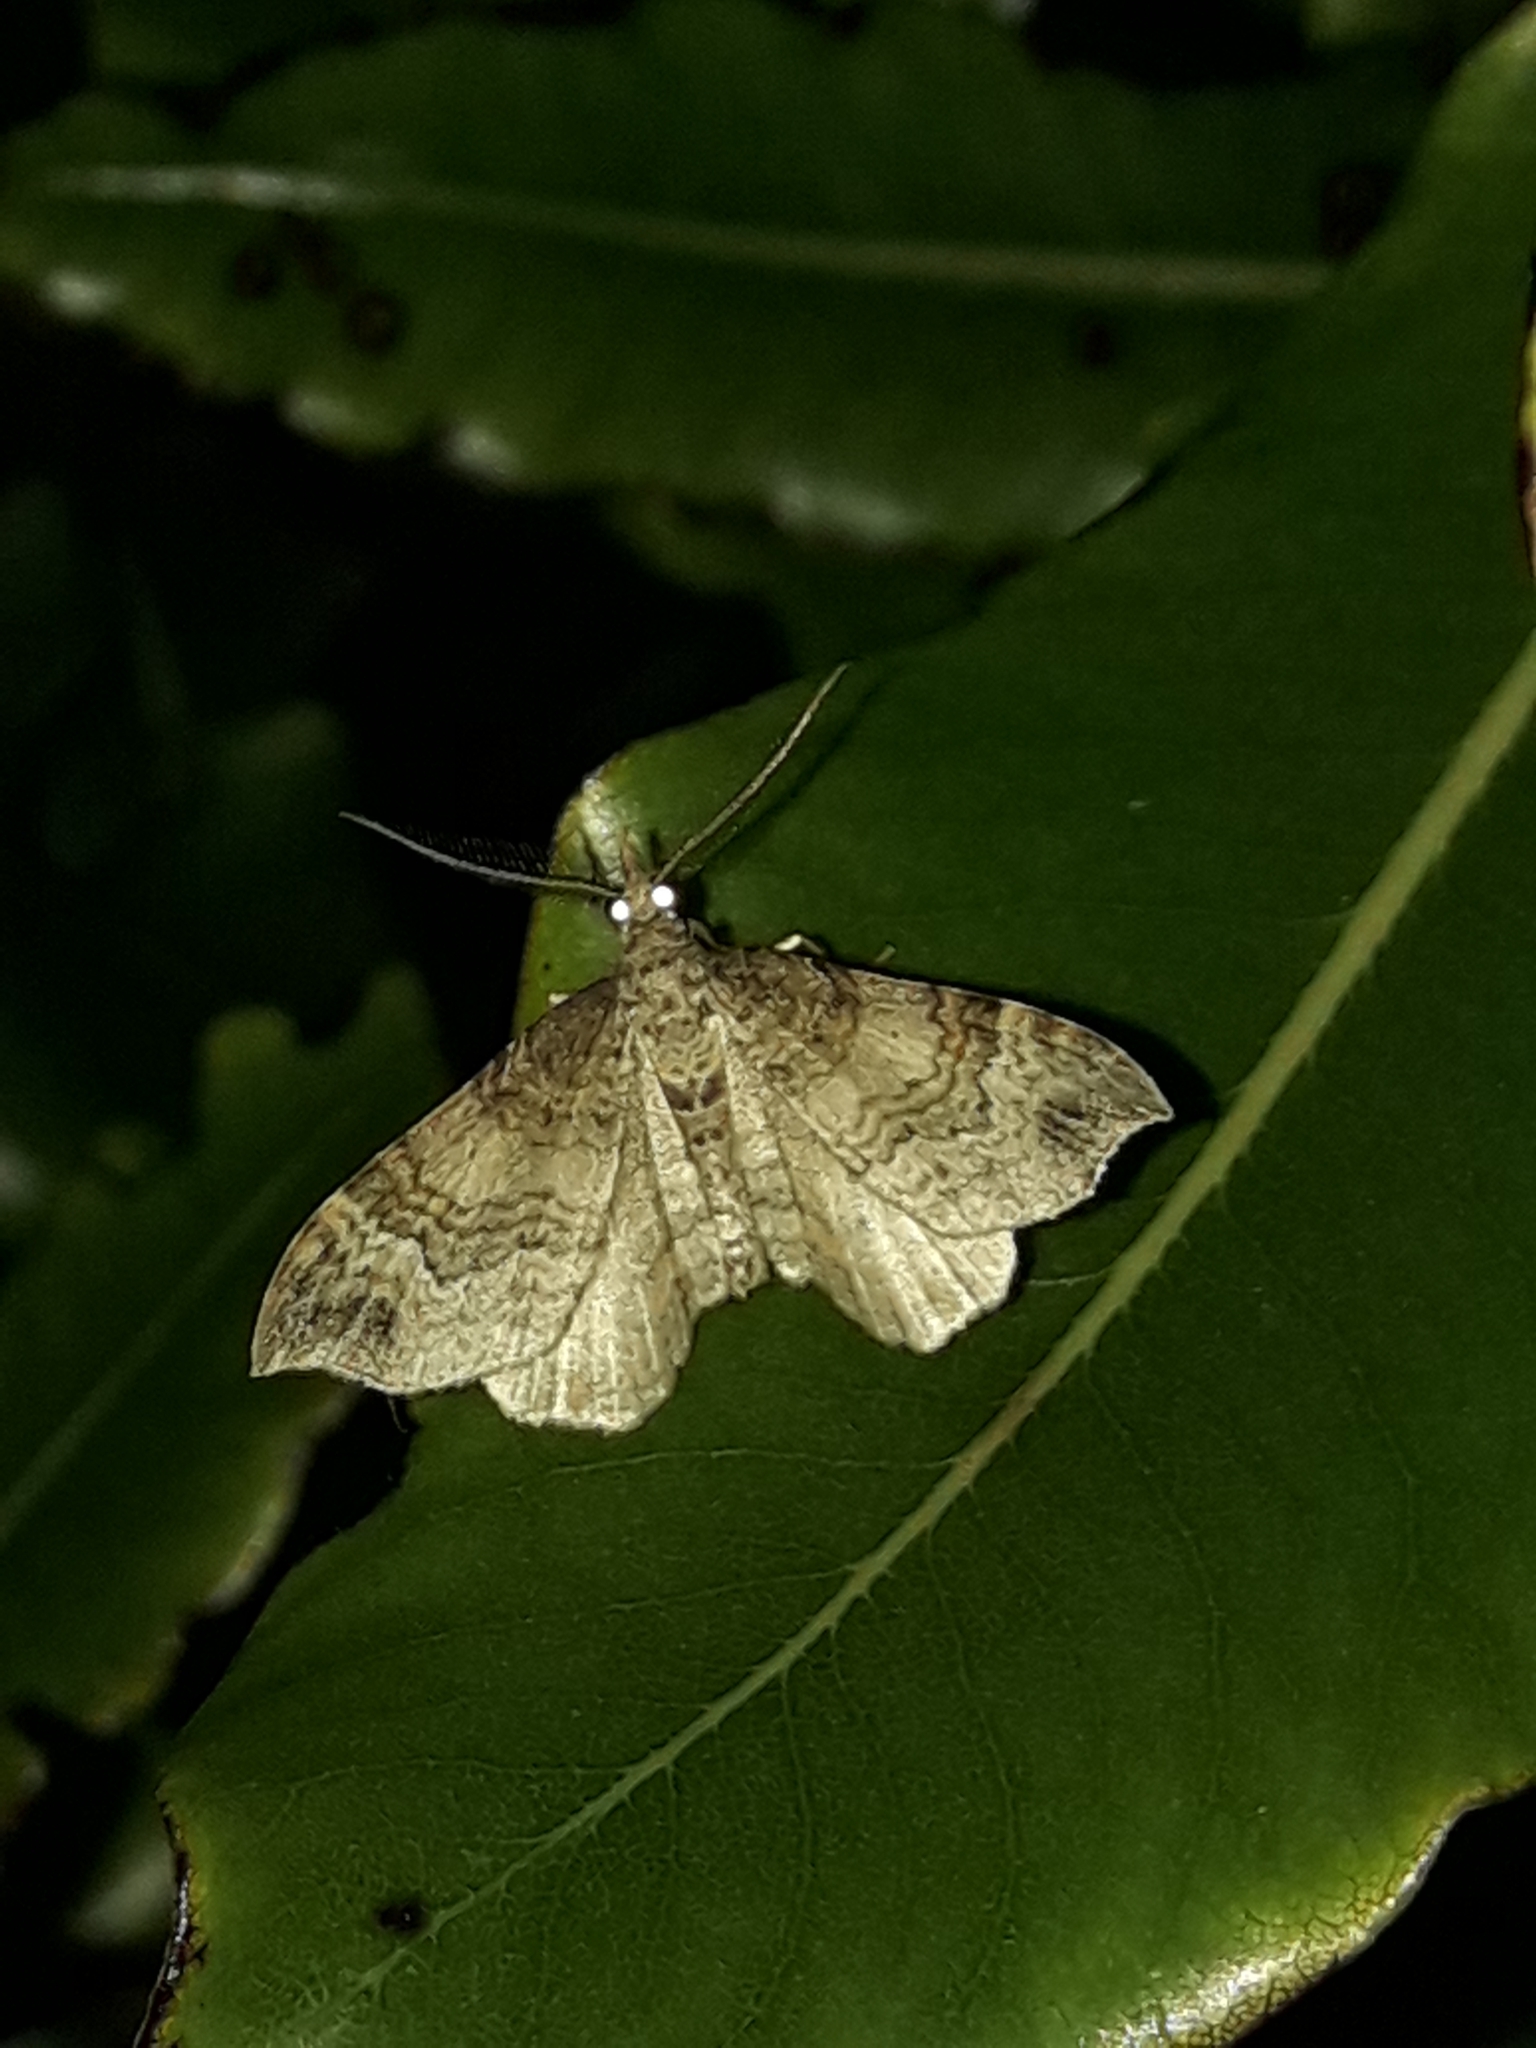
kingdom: Animalia
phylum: Arthropoda
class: Insecta
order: Lepidoptera
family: Geometridae
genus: Homodotis
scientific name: Homodotis megaspilata
